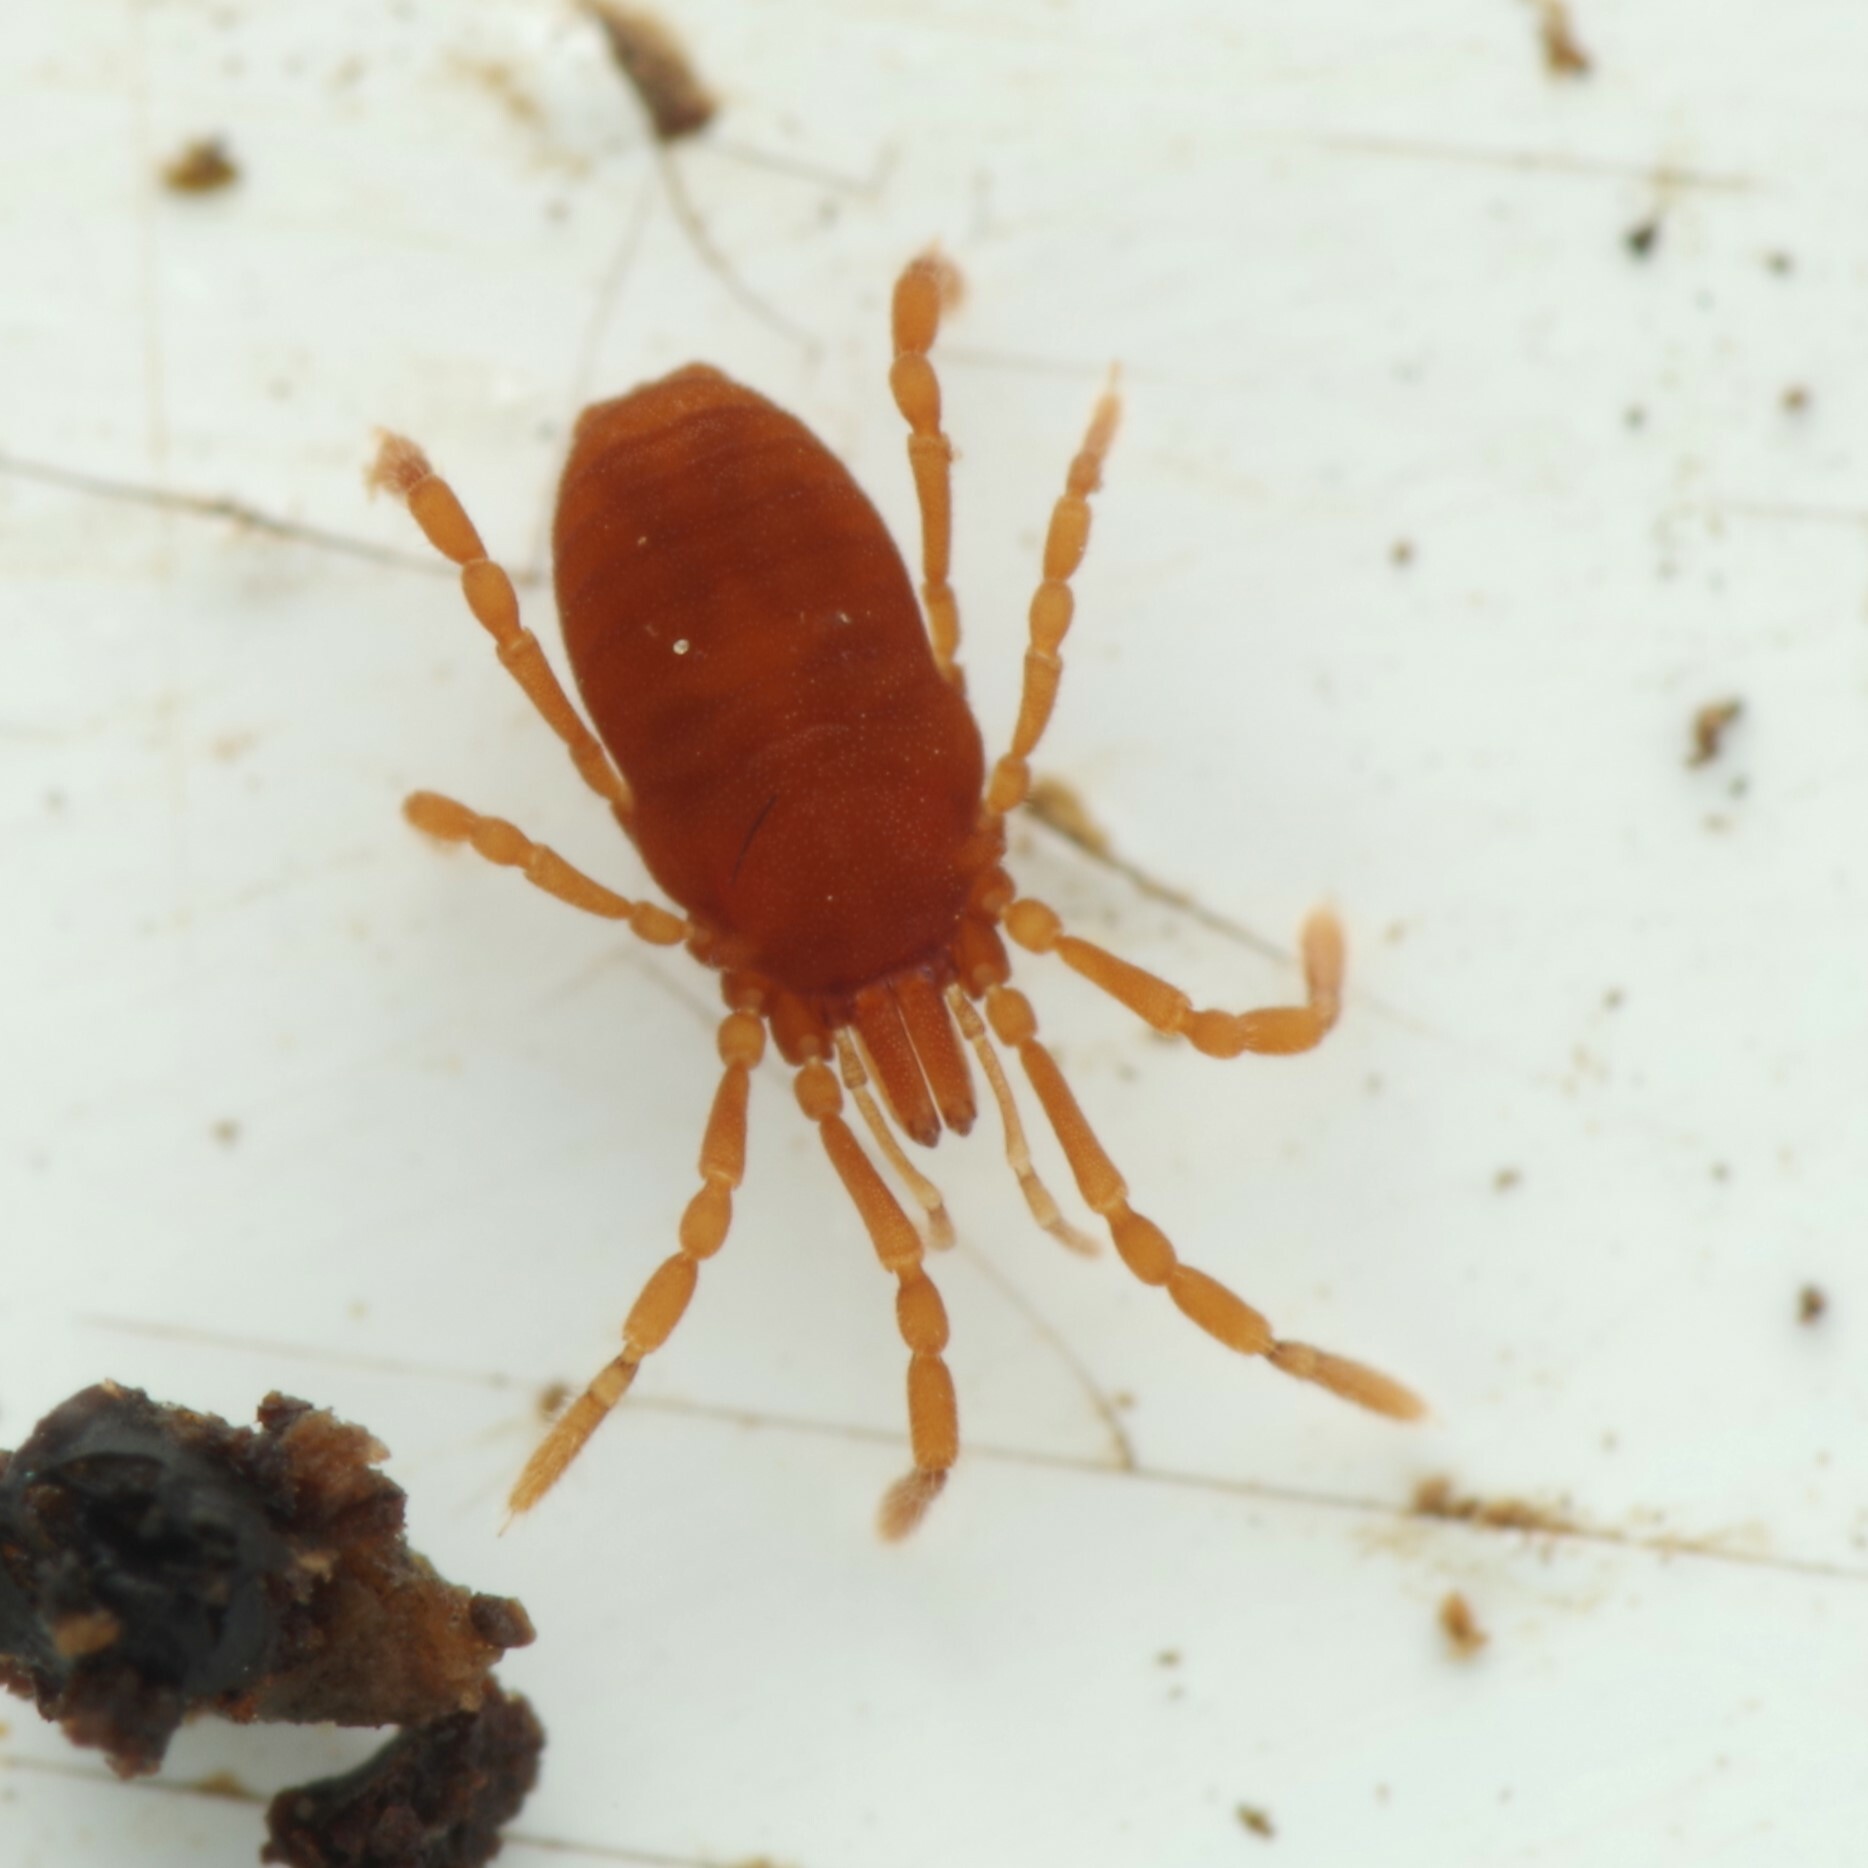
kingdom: Animalia
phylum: Arthropoda
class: Arachnida
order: Opiliones
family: Sironidae
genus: Siro
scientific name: Siro rubens
